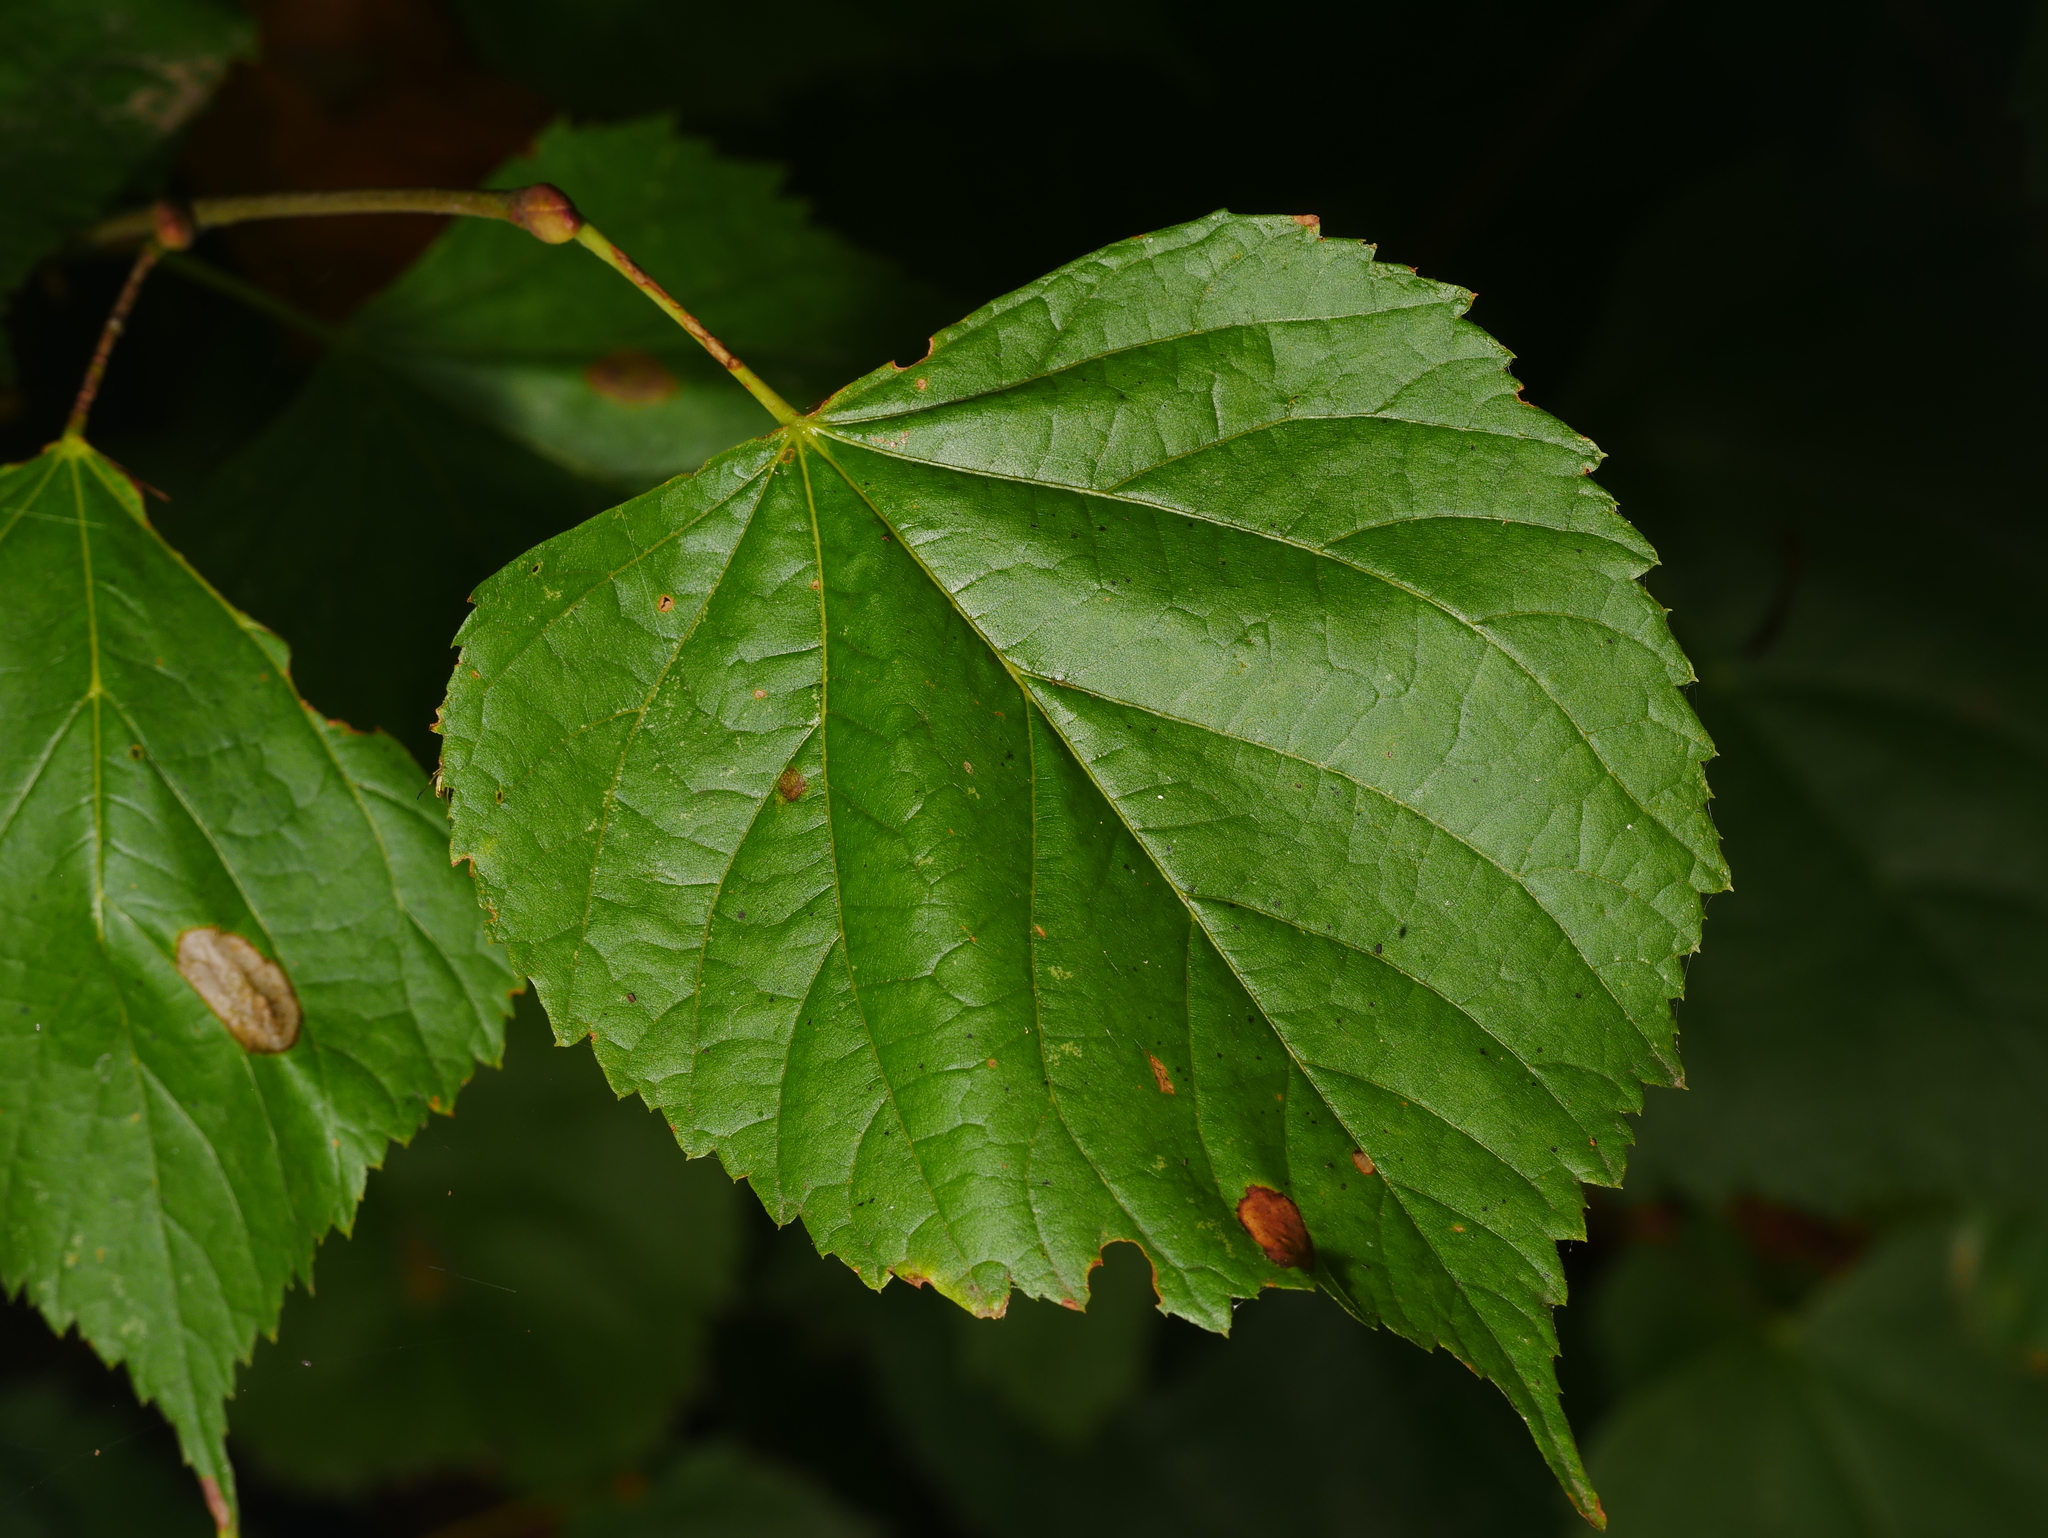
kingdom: Plantae
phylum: Tracheophyta
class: Magnoliopsida
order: Malvales
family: Malvaceae
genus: Tilia
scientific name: Tilia cordata
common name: Small-leaved lime
